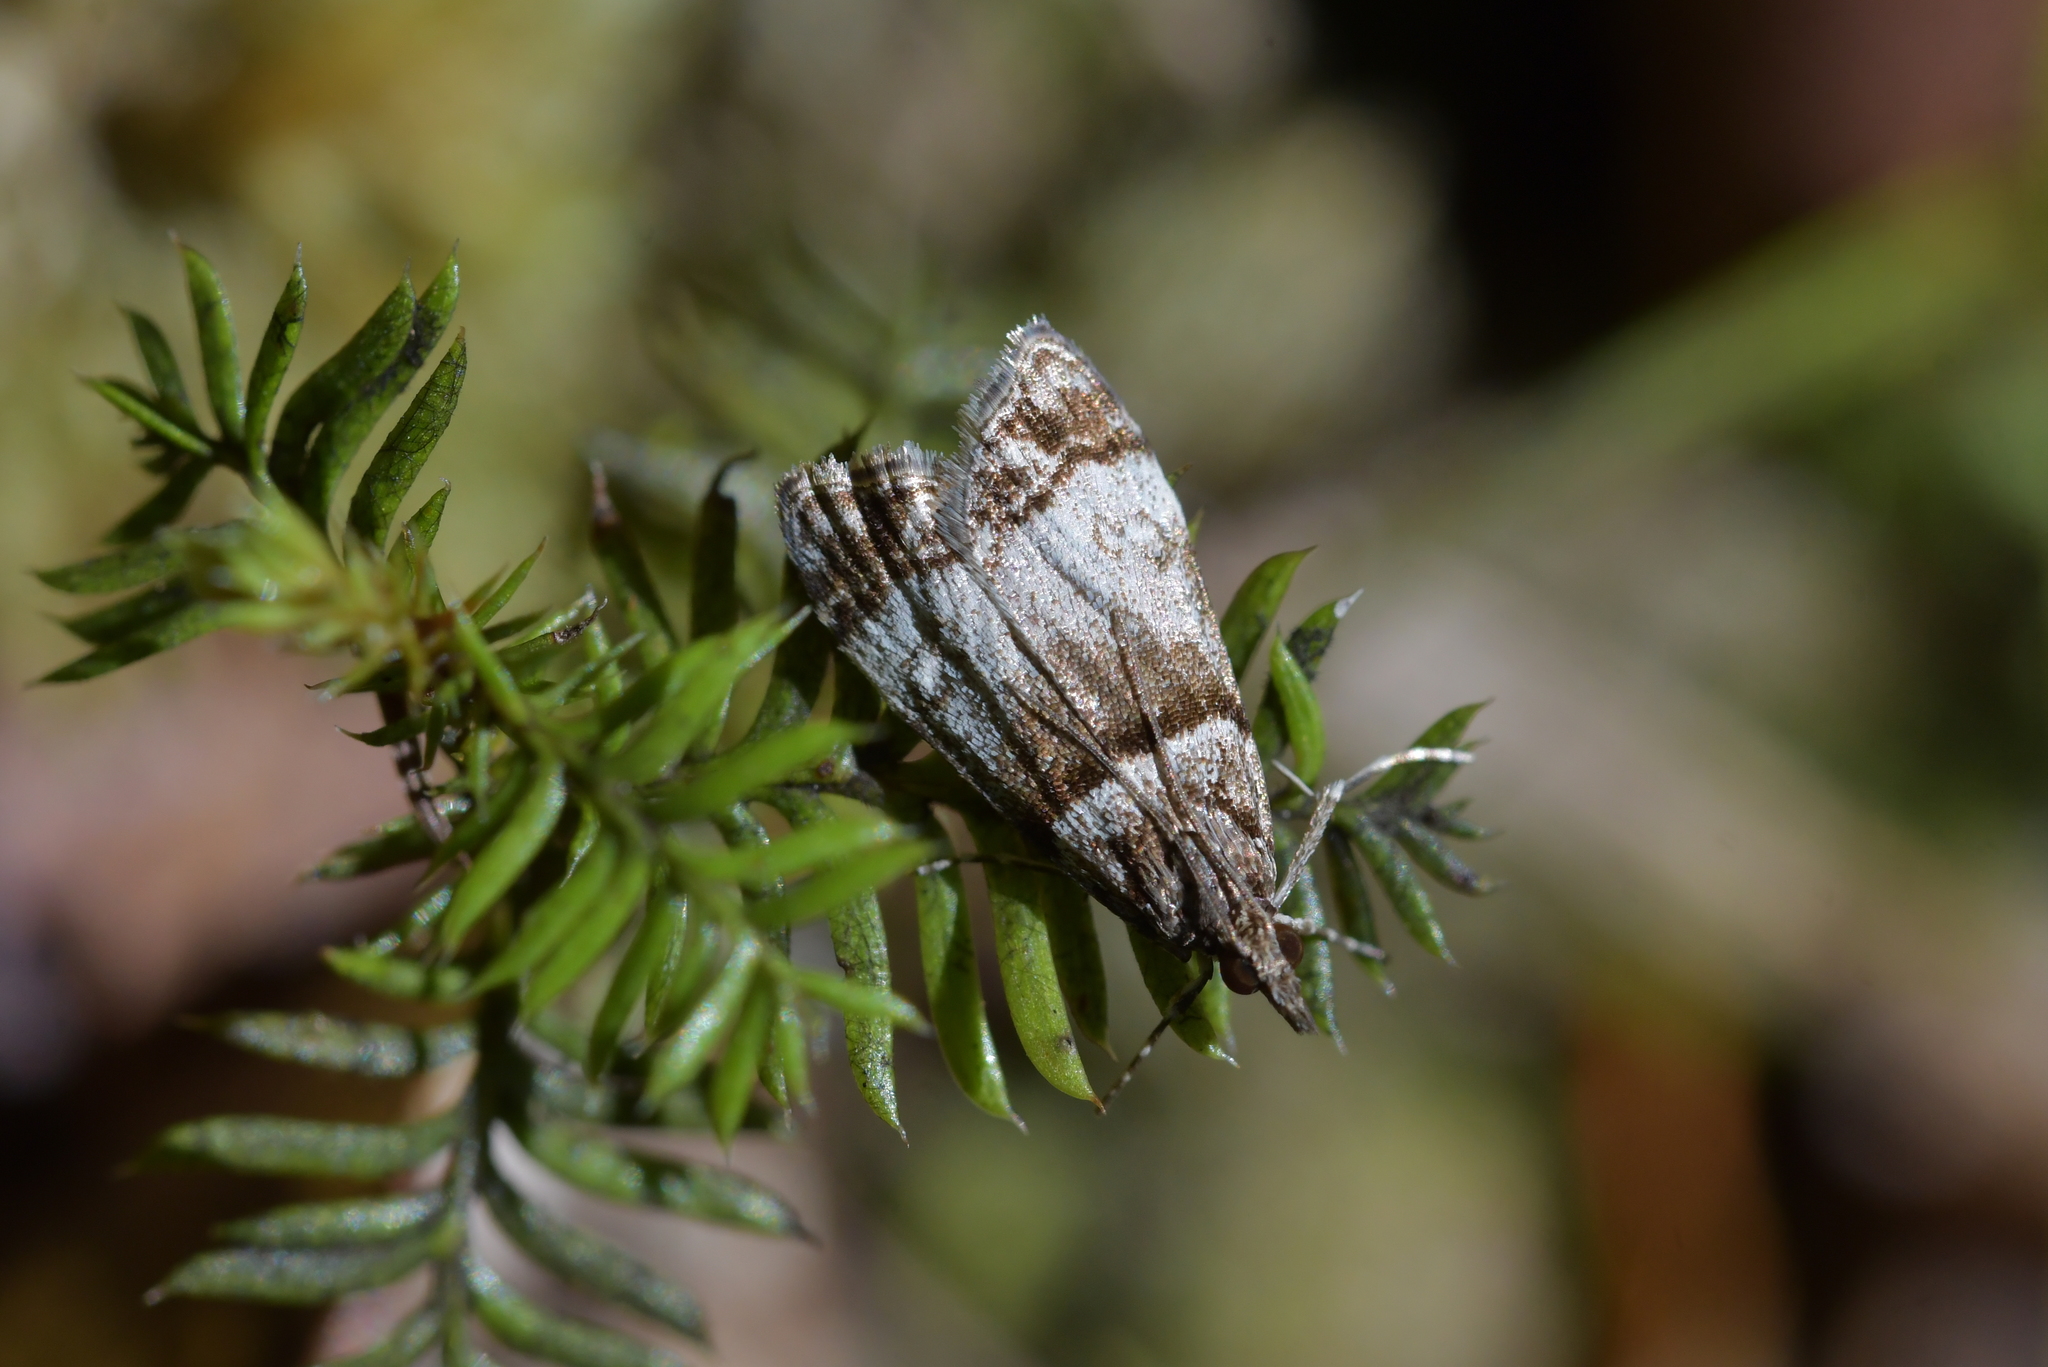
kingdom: Animalia
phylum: Arthropoda
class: Insecta
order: Lepidoptera
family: Crambidae
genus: Eudonia
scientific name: Eudonia choristis
